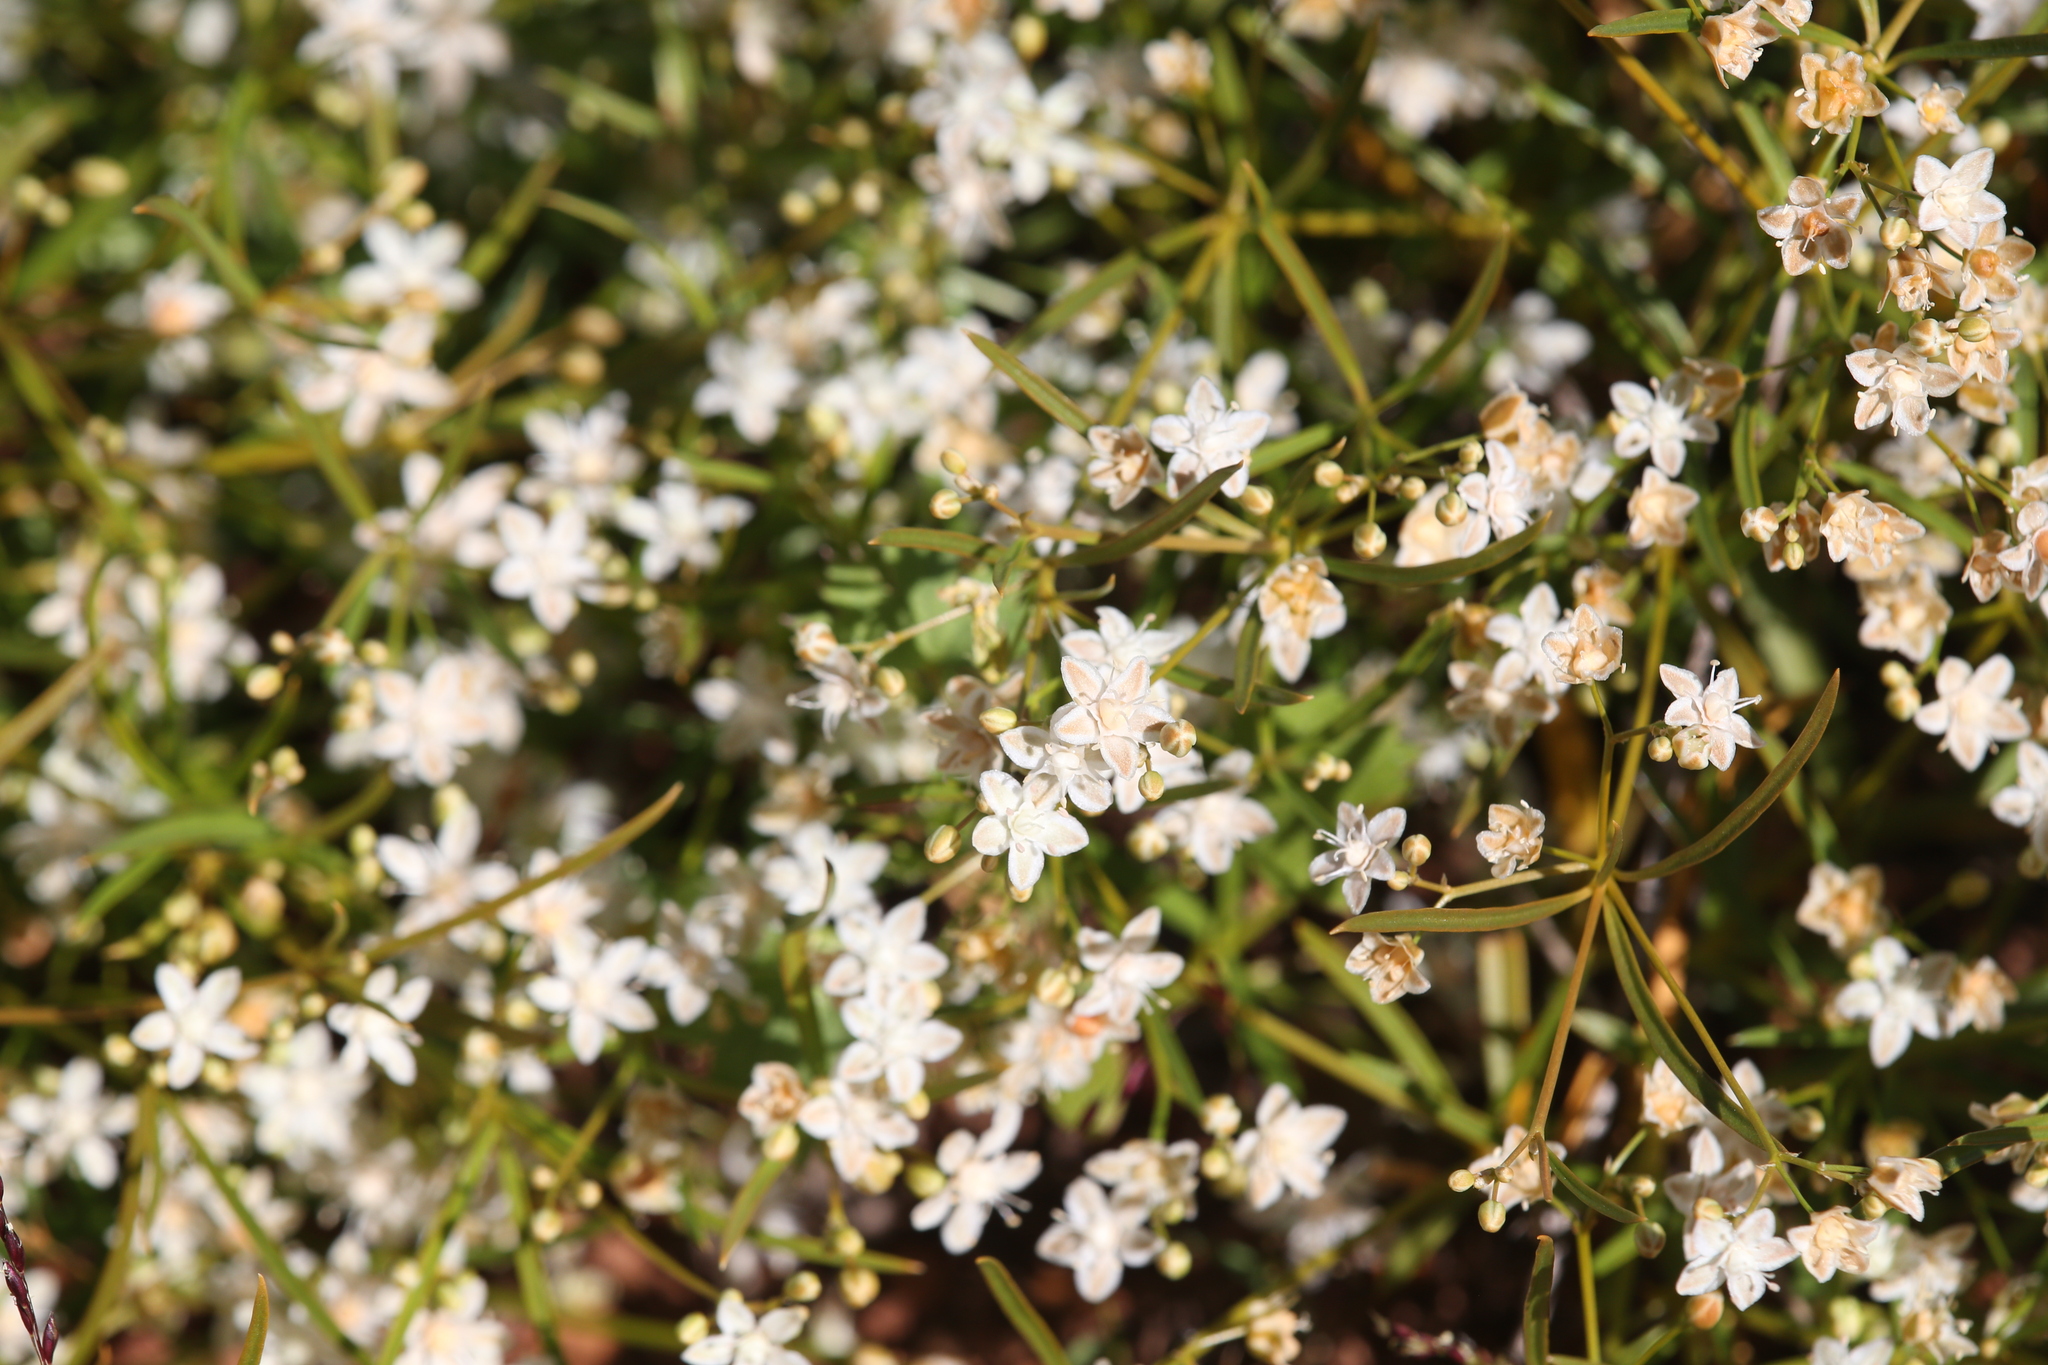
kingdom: Plantae
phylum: Tracheophyta
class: Magnoliopsida
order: Caryophyllales
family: Molluginaceae
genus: Trigastrotheca
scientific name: Trigastrotheca molluginea
